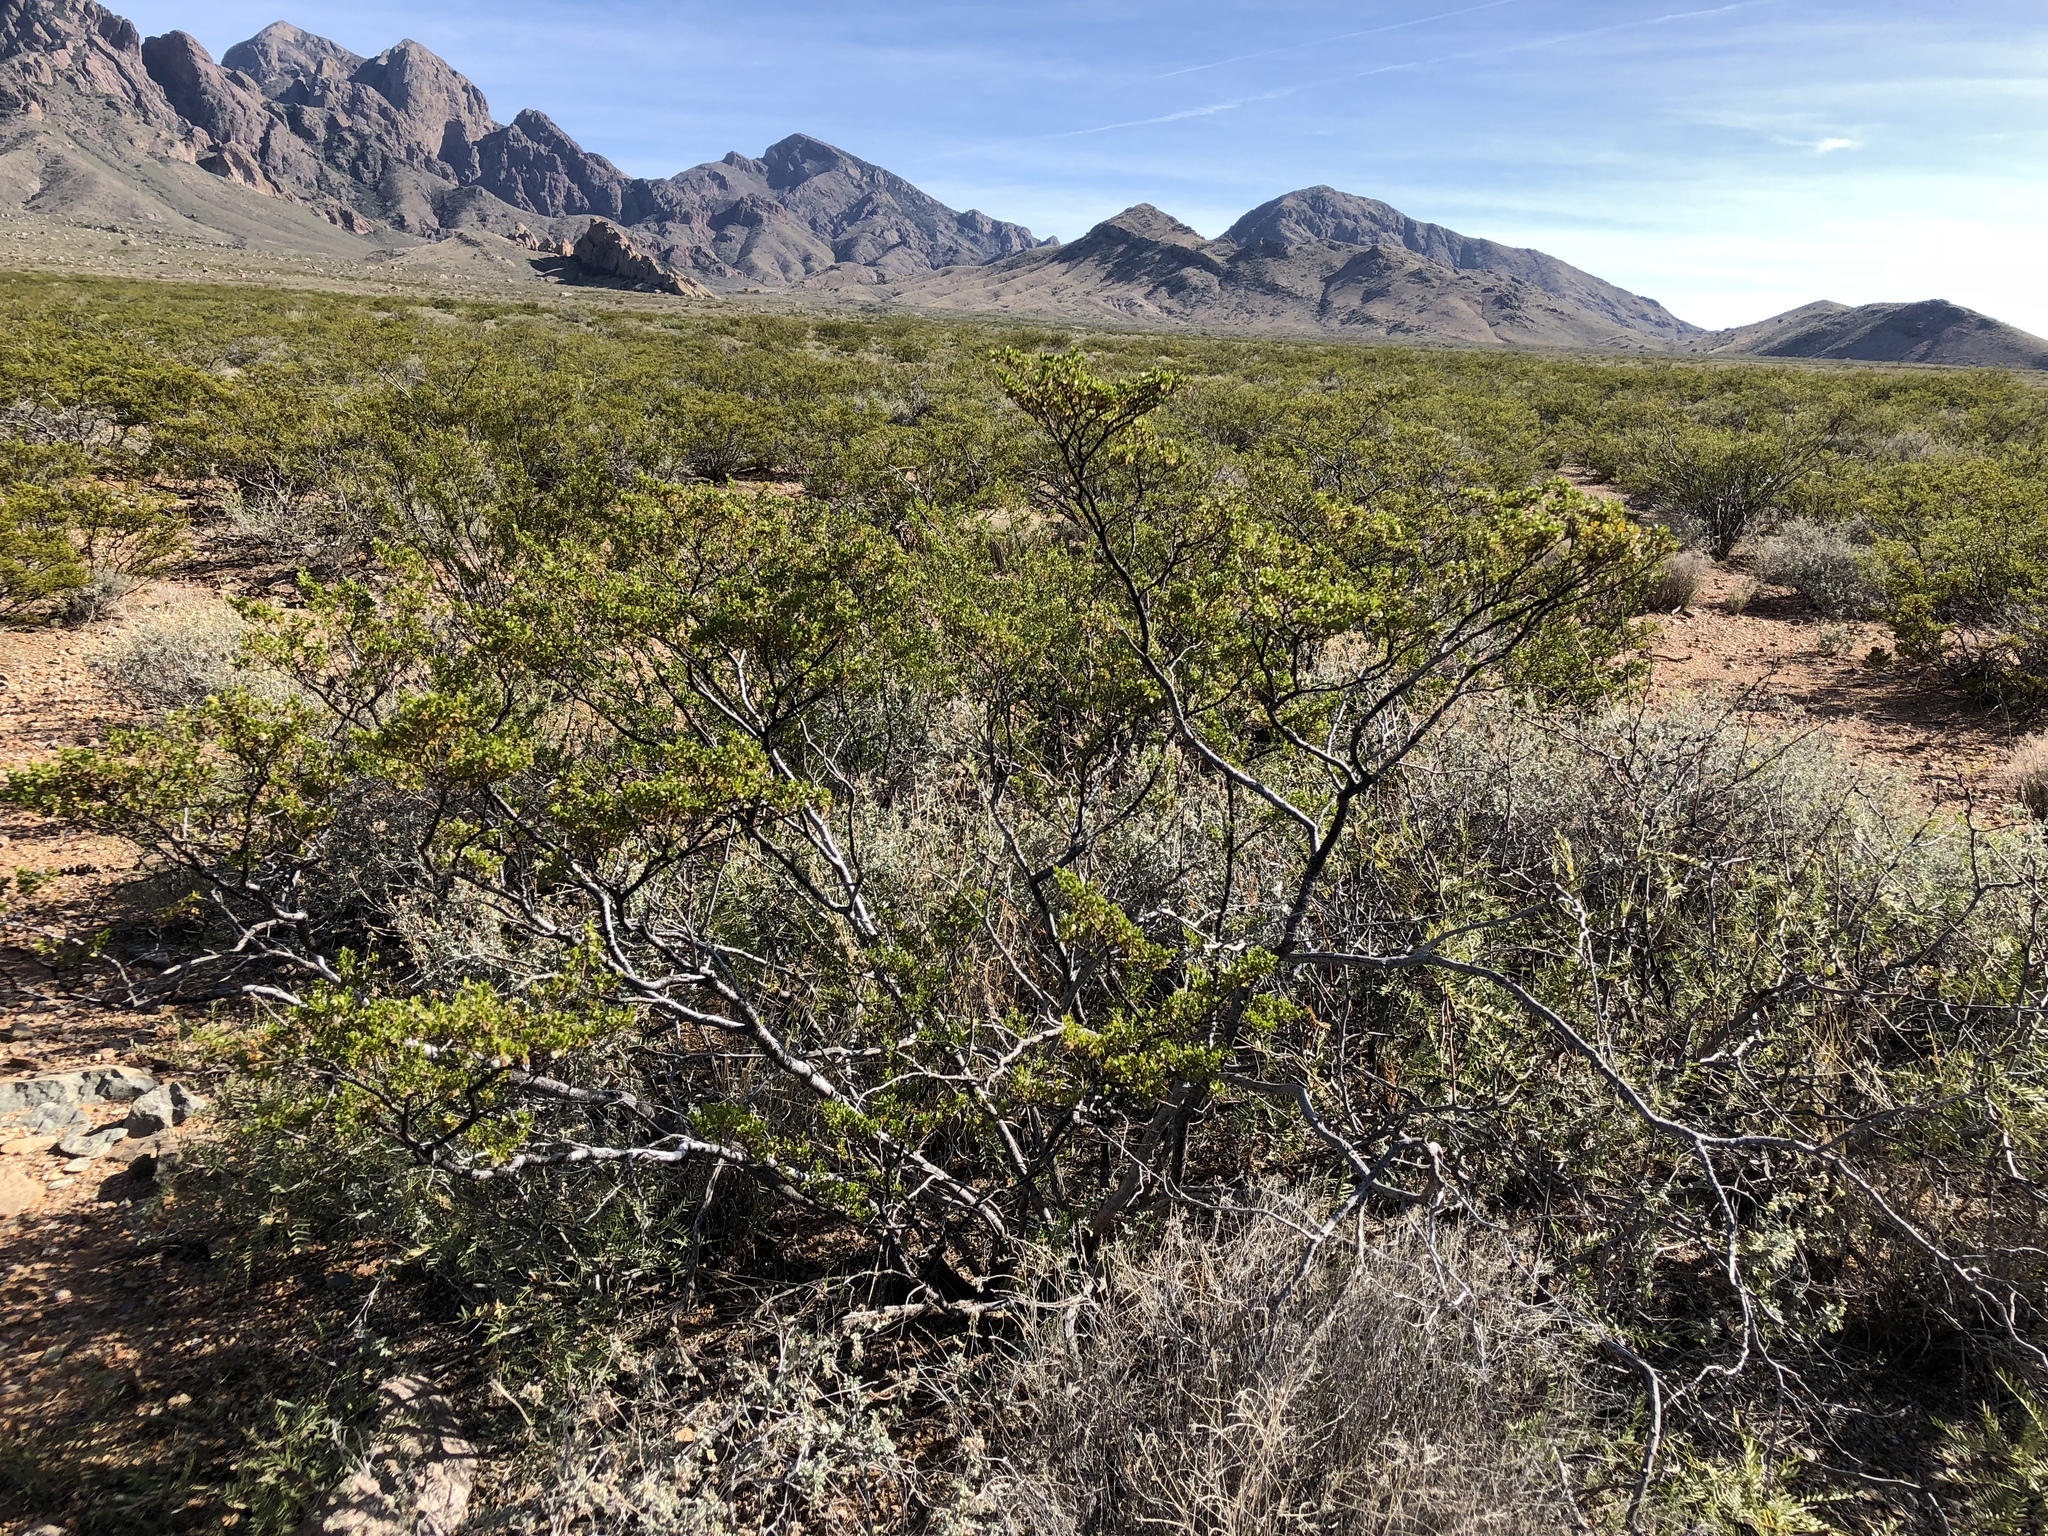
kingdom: Plantae
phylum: Tracheophyta
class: Magnoliopsida
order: Zygophyllales
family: Zygophyllaceae
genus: Larrea
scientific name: Larrea tridentata
